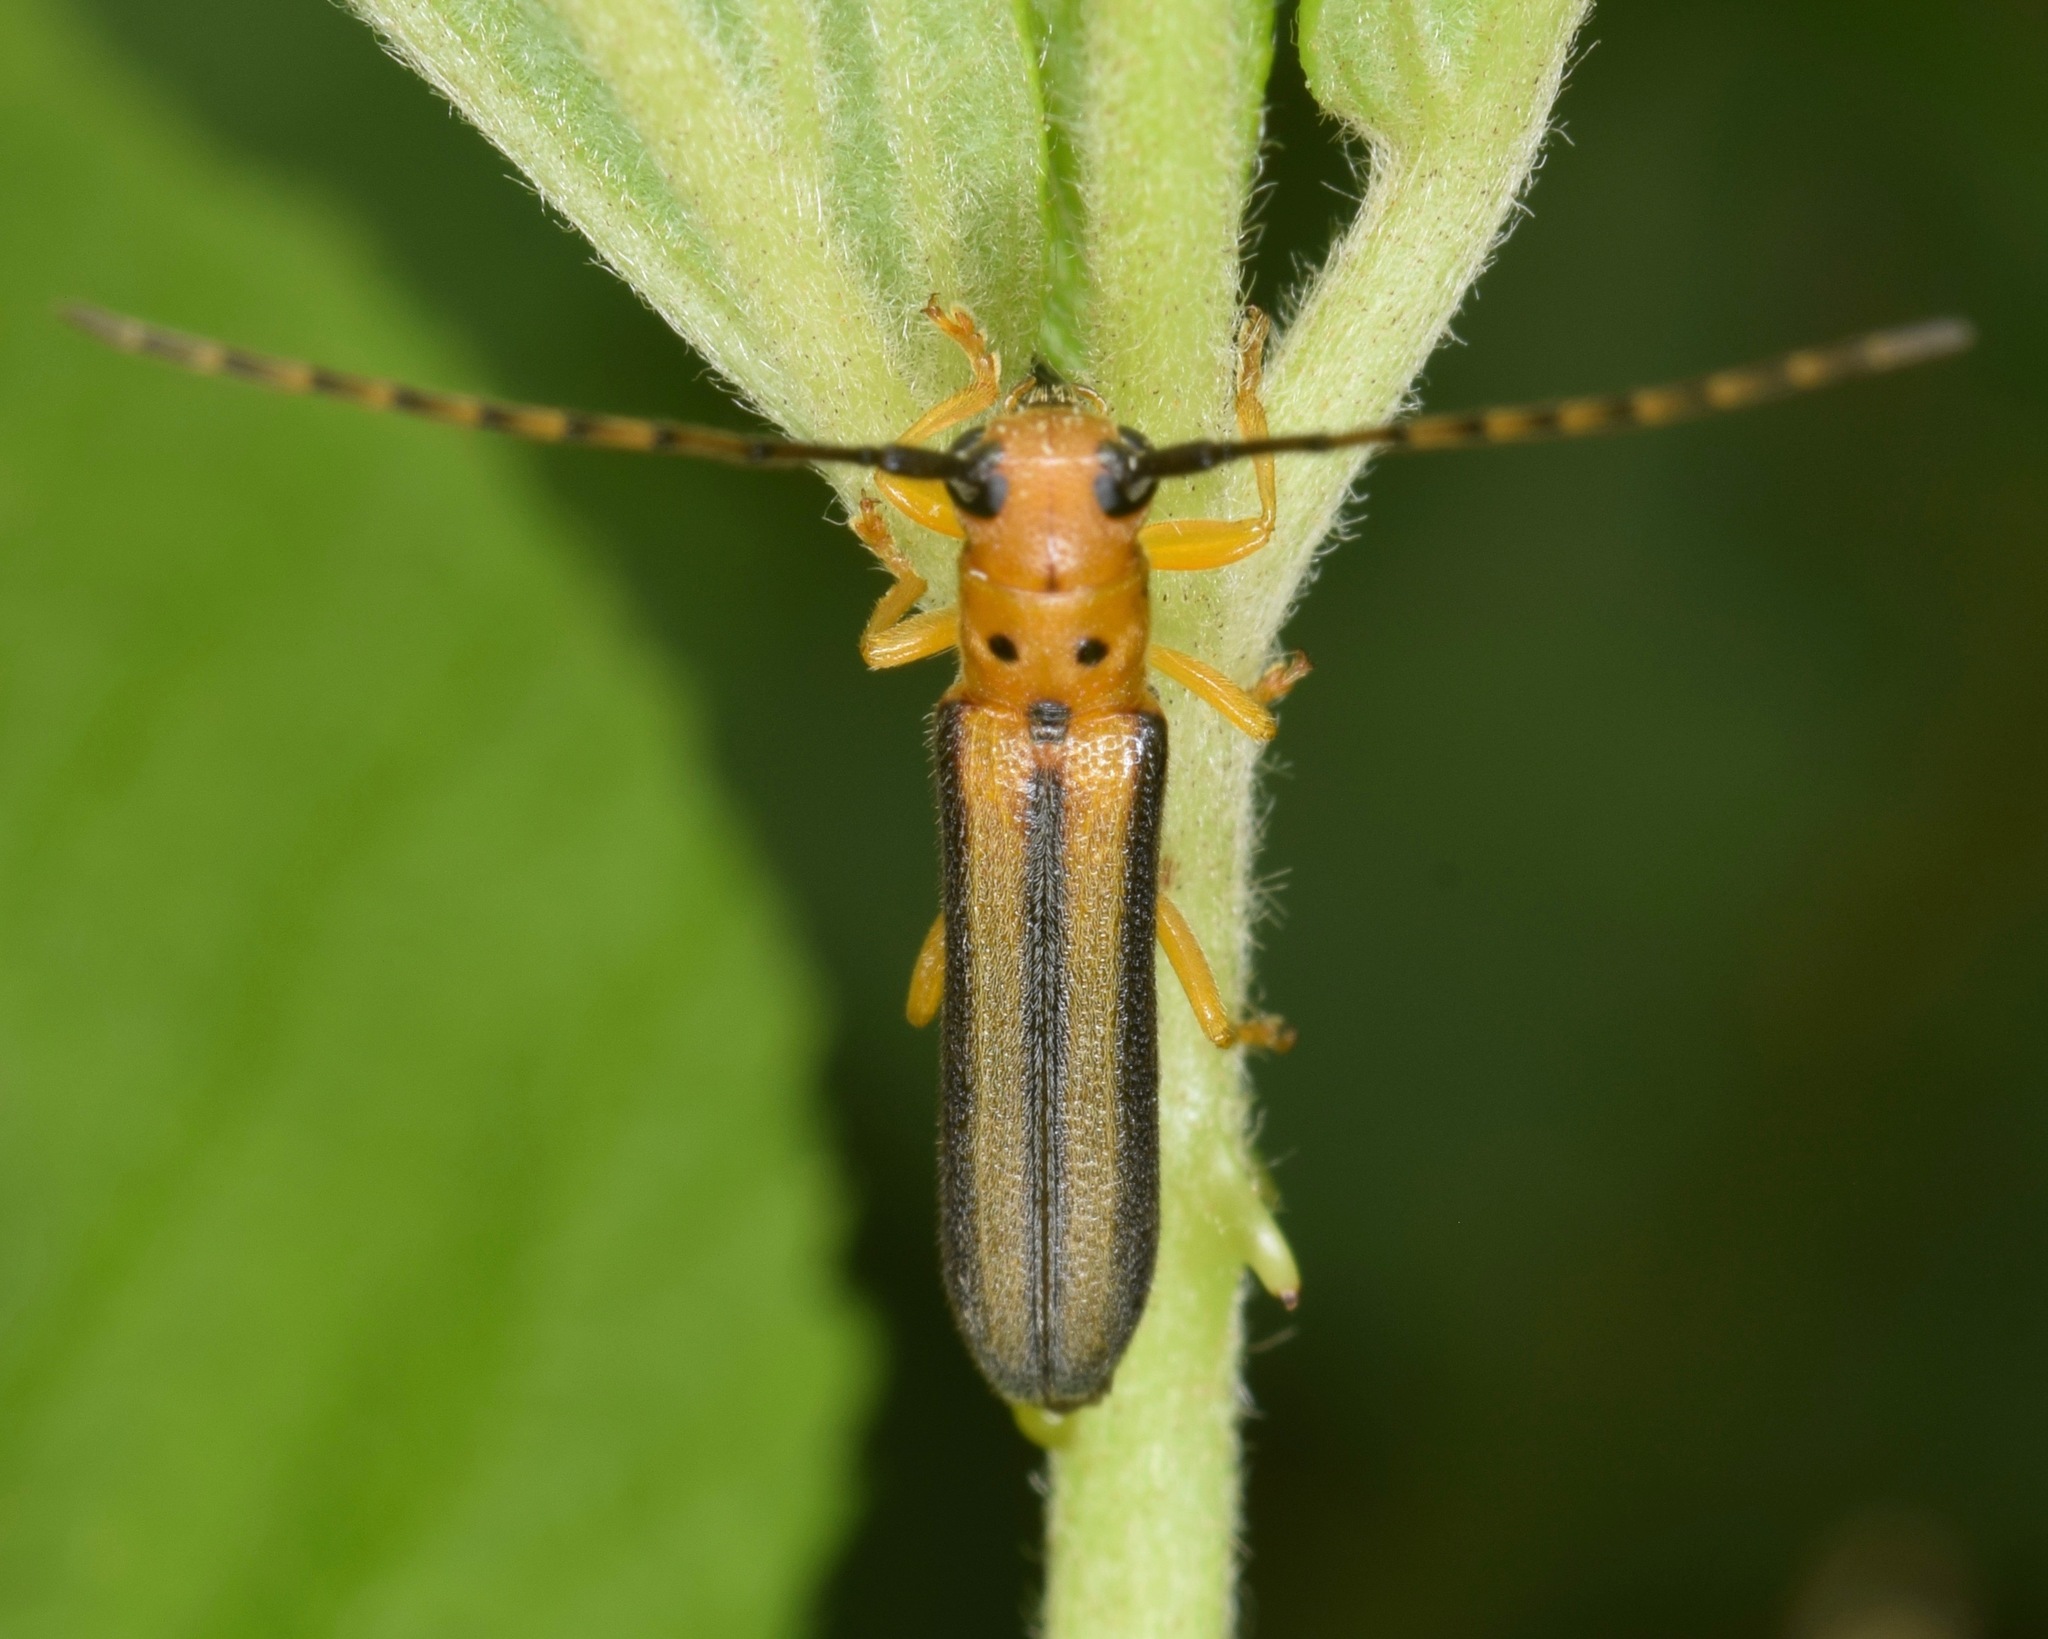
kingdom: Animalia
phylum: Arthropoda
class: Insecta
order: Coleoptera
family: Cerambycidae
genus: Oberea
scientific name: Oberea tripunctata
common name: Dogwood twig borer
